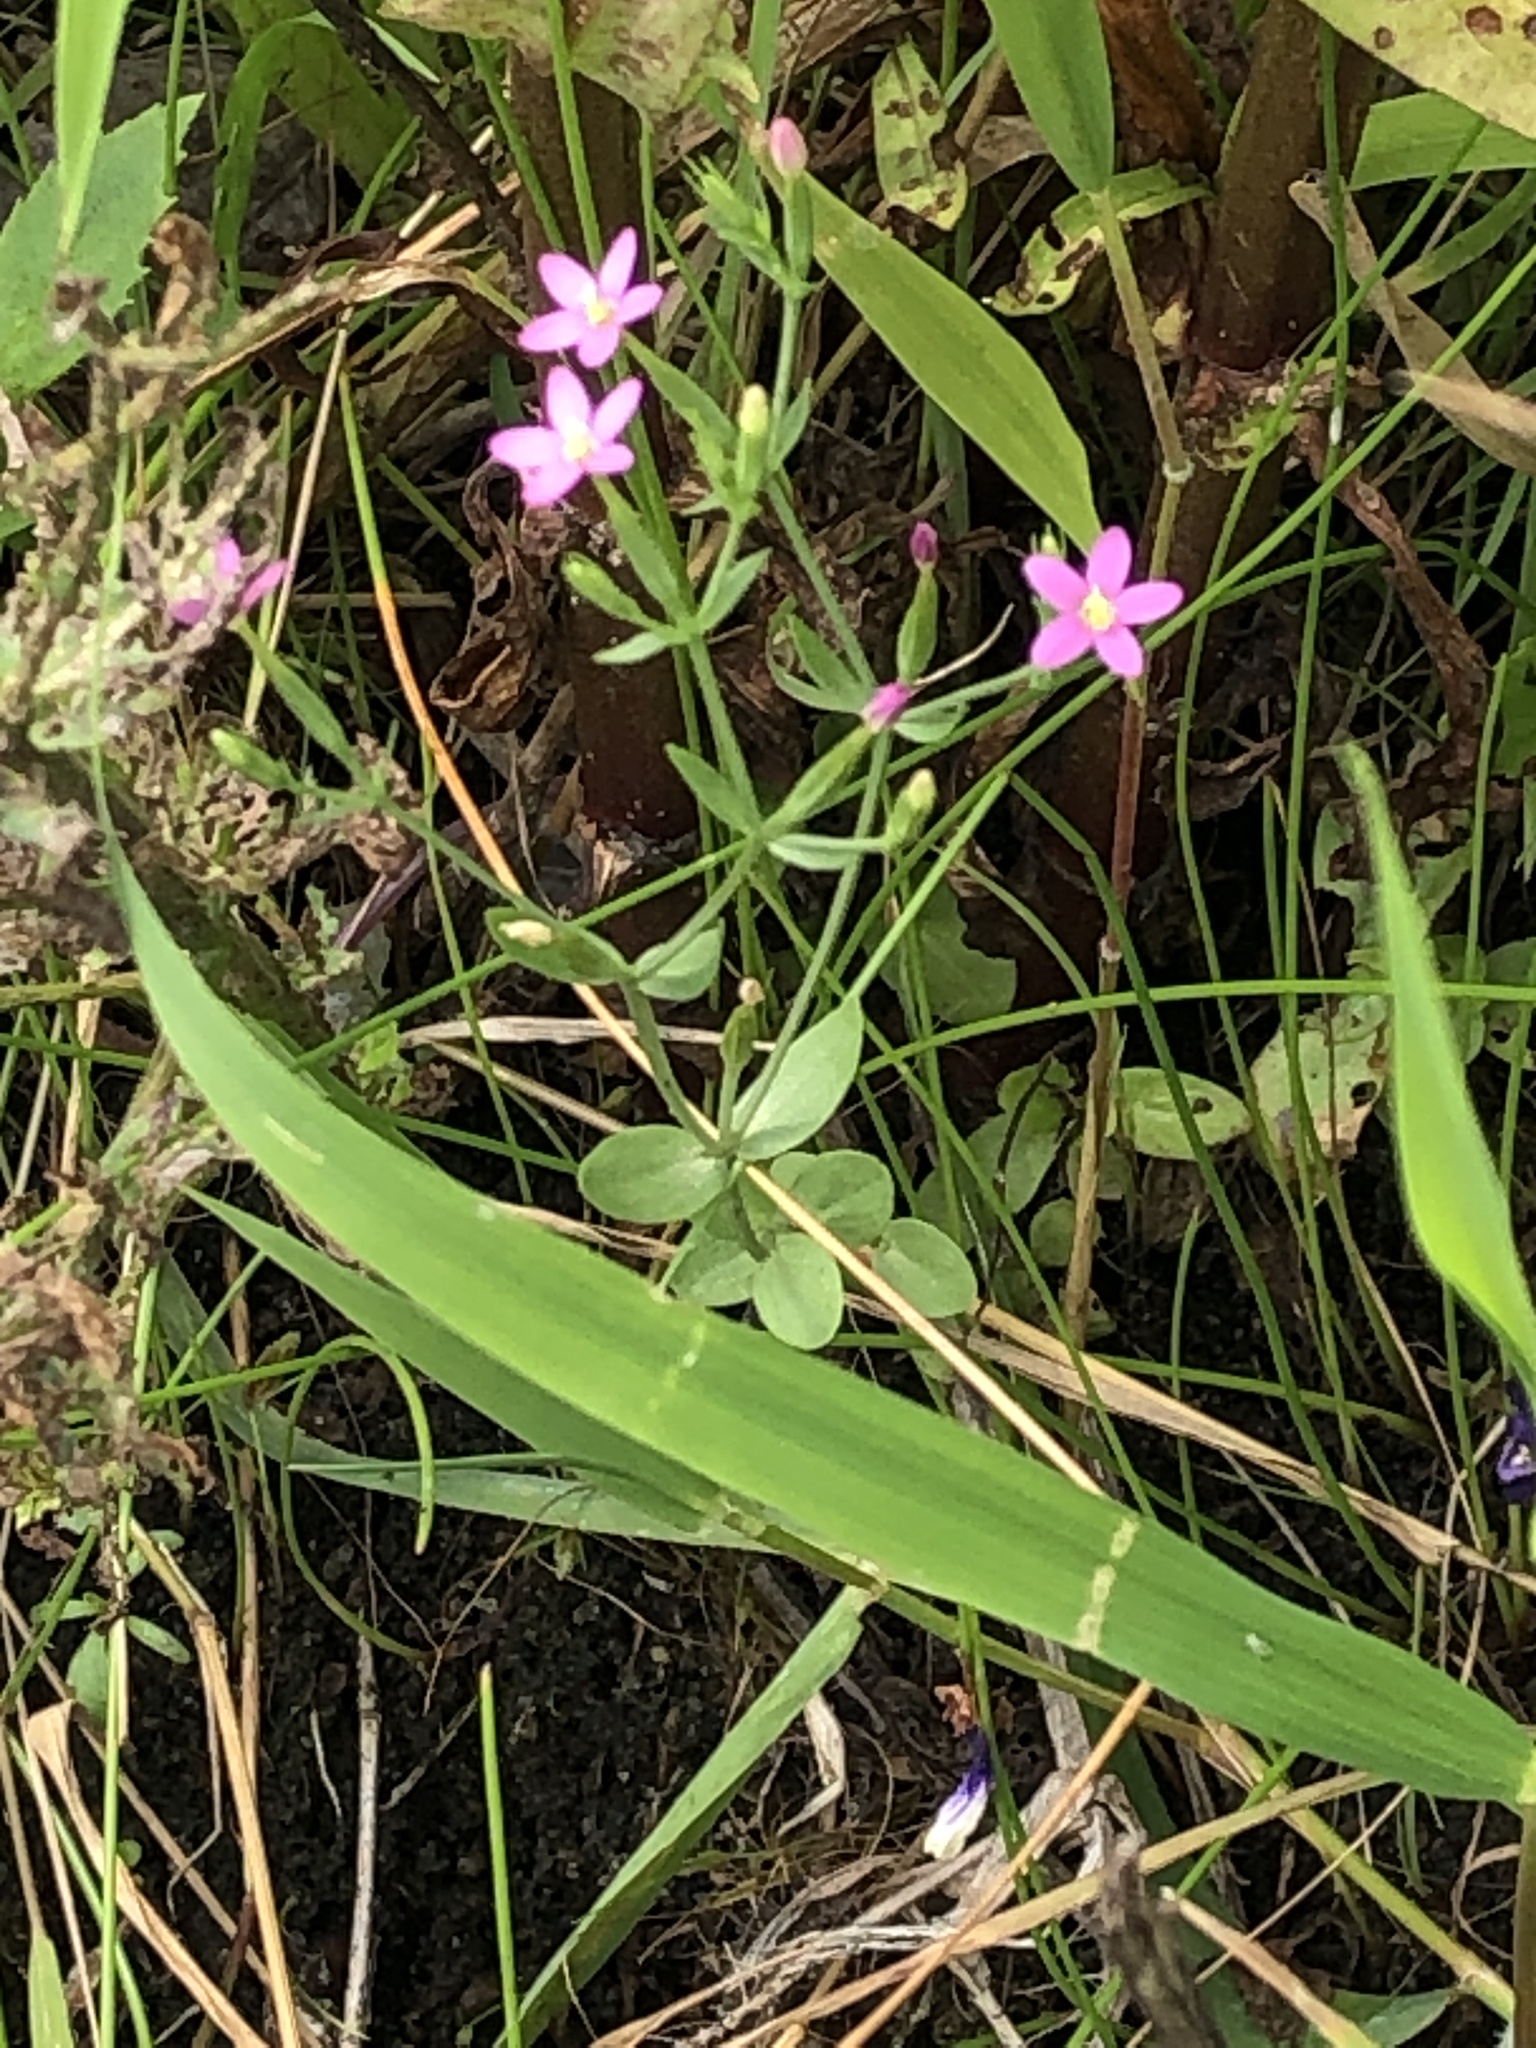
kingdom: Plantae
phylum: Tracheophyta
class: Magnoliopsida
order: Gentianales
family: Gentianaceae
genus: Centaurium
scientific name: Centaurium pulchellum
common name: Lesser centaury
